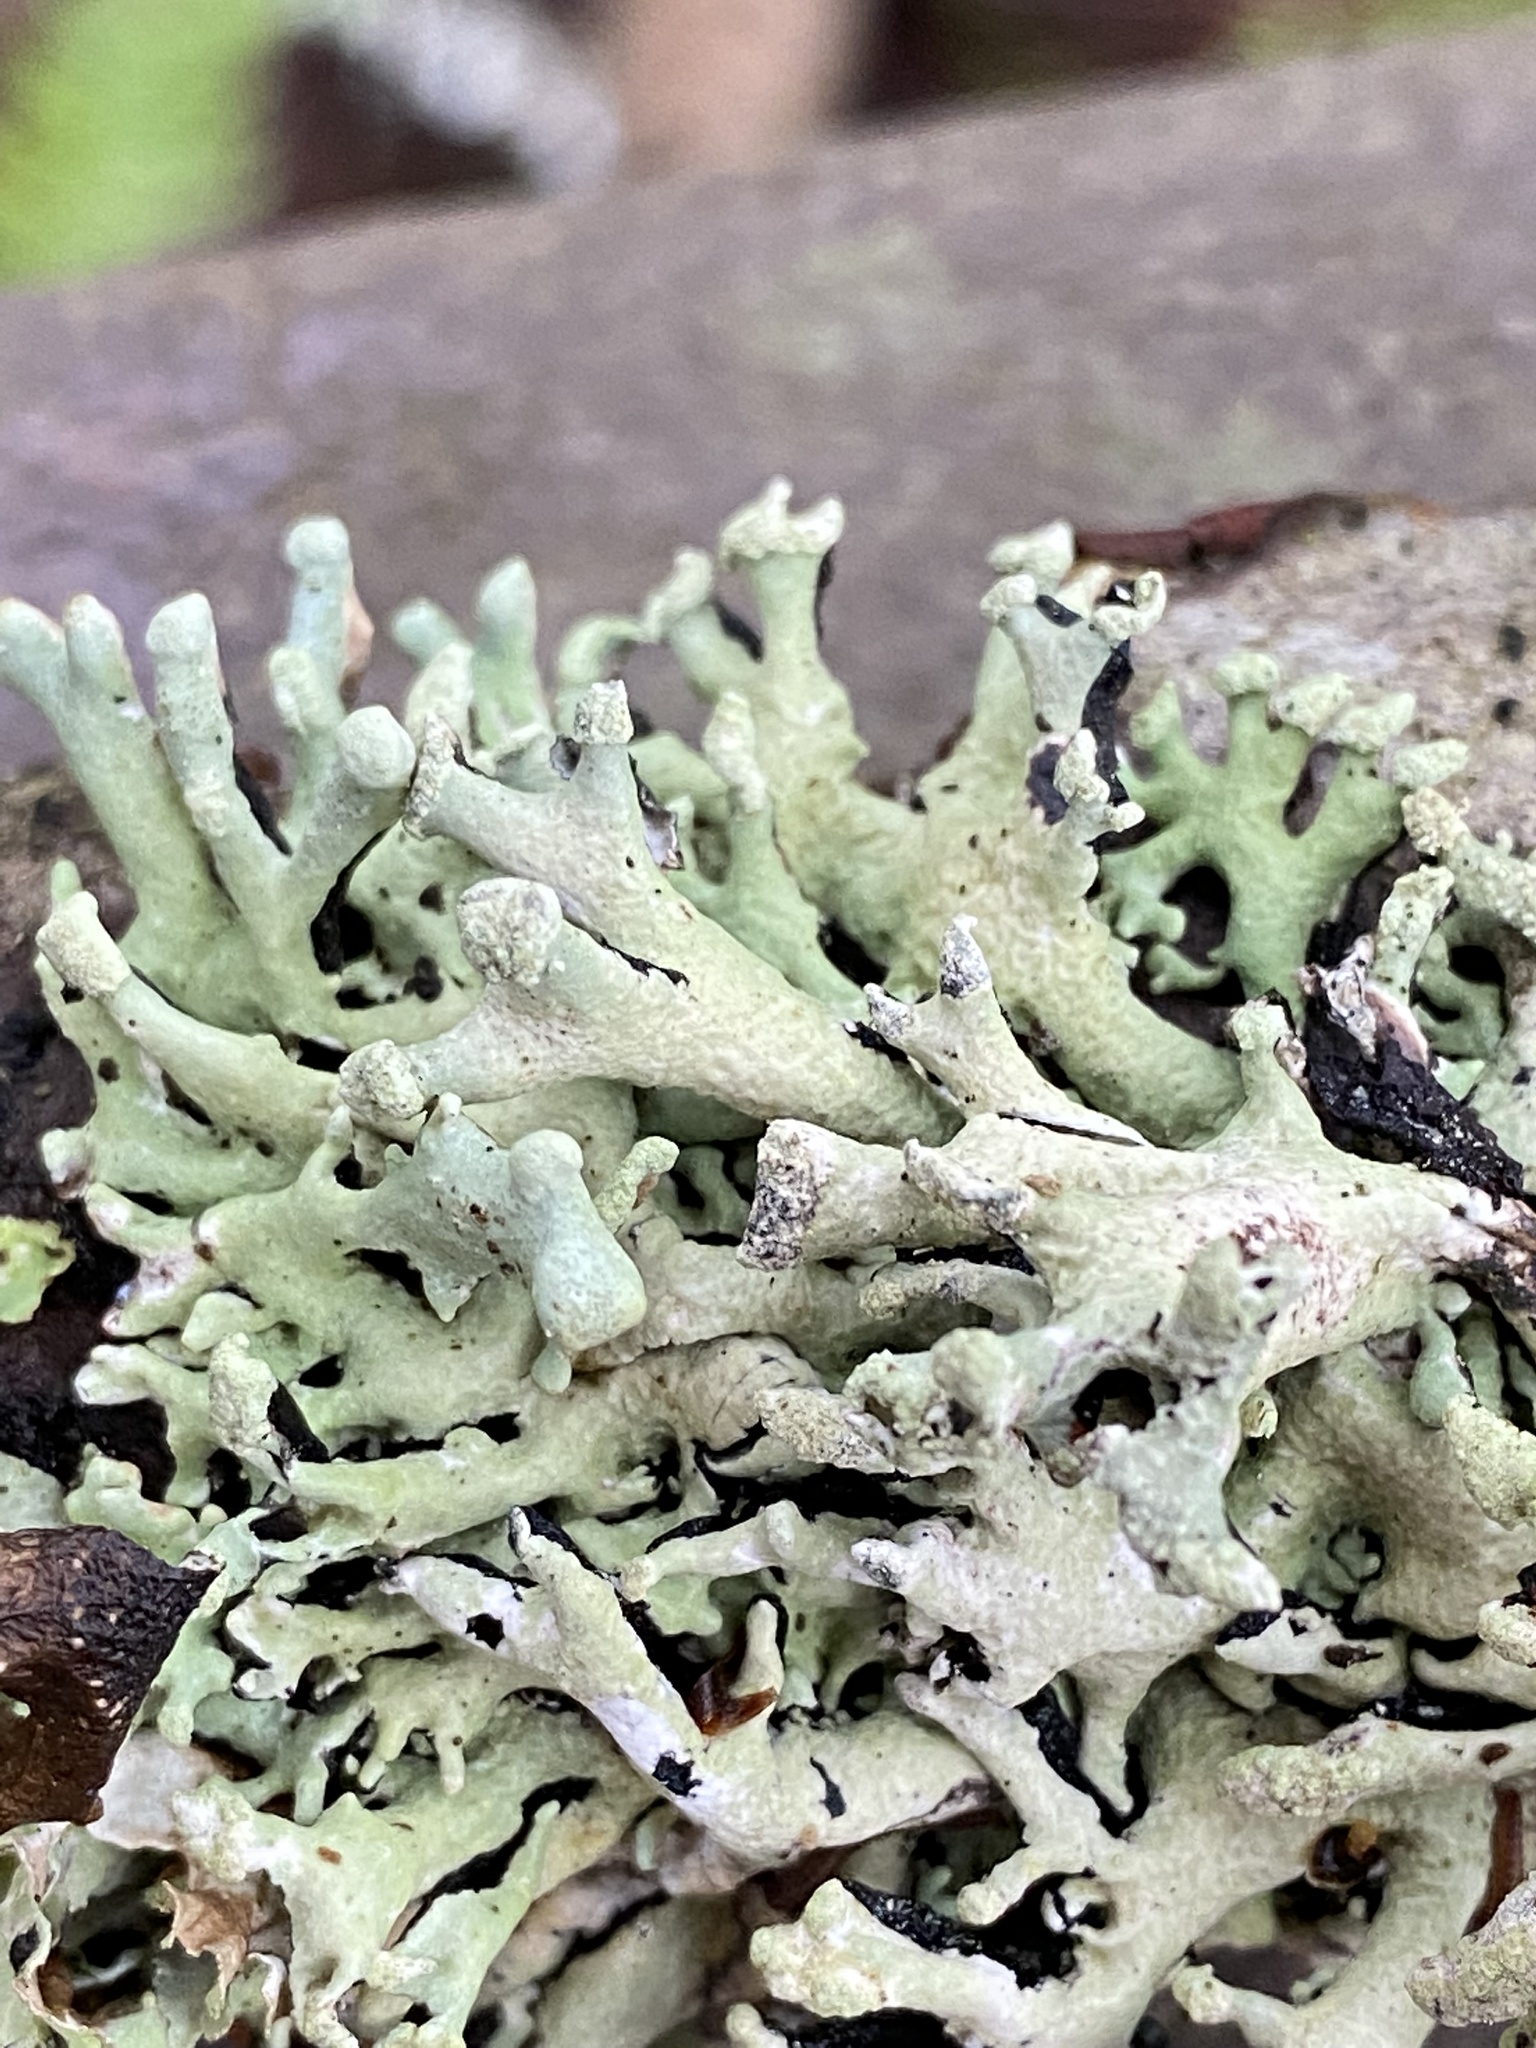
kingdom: Fungi
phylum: Ascomycota
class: Lecanoromycetes
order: Lecanorales
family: Parmeliaceae
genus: Hypogymnia
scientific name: Hypogymnia tubulosa
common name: Powder-headed tube lichen
